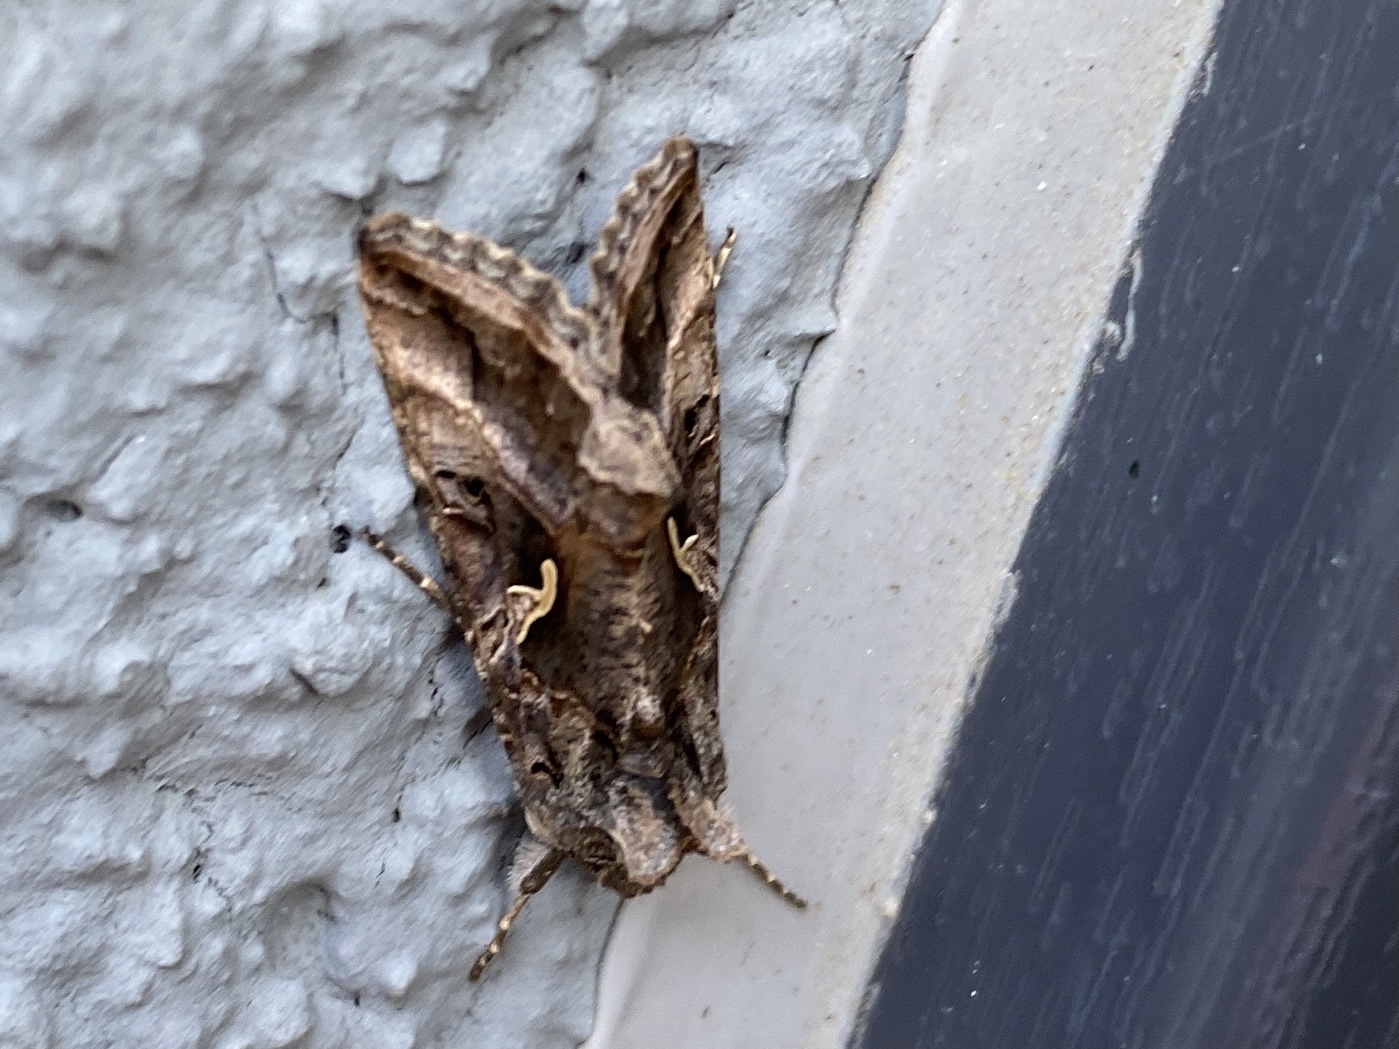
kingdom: Animalia
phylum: Arthropoda
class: Insecta
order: Lepidoptera
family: Noctuidae
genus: Autographa
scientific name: Autographa gamma
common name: Silver y
